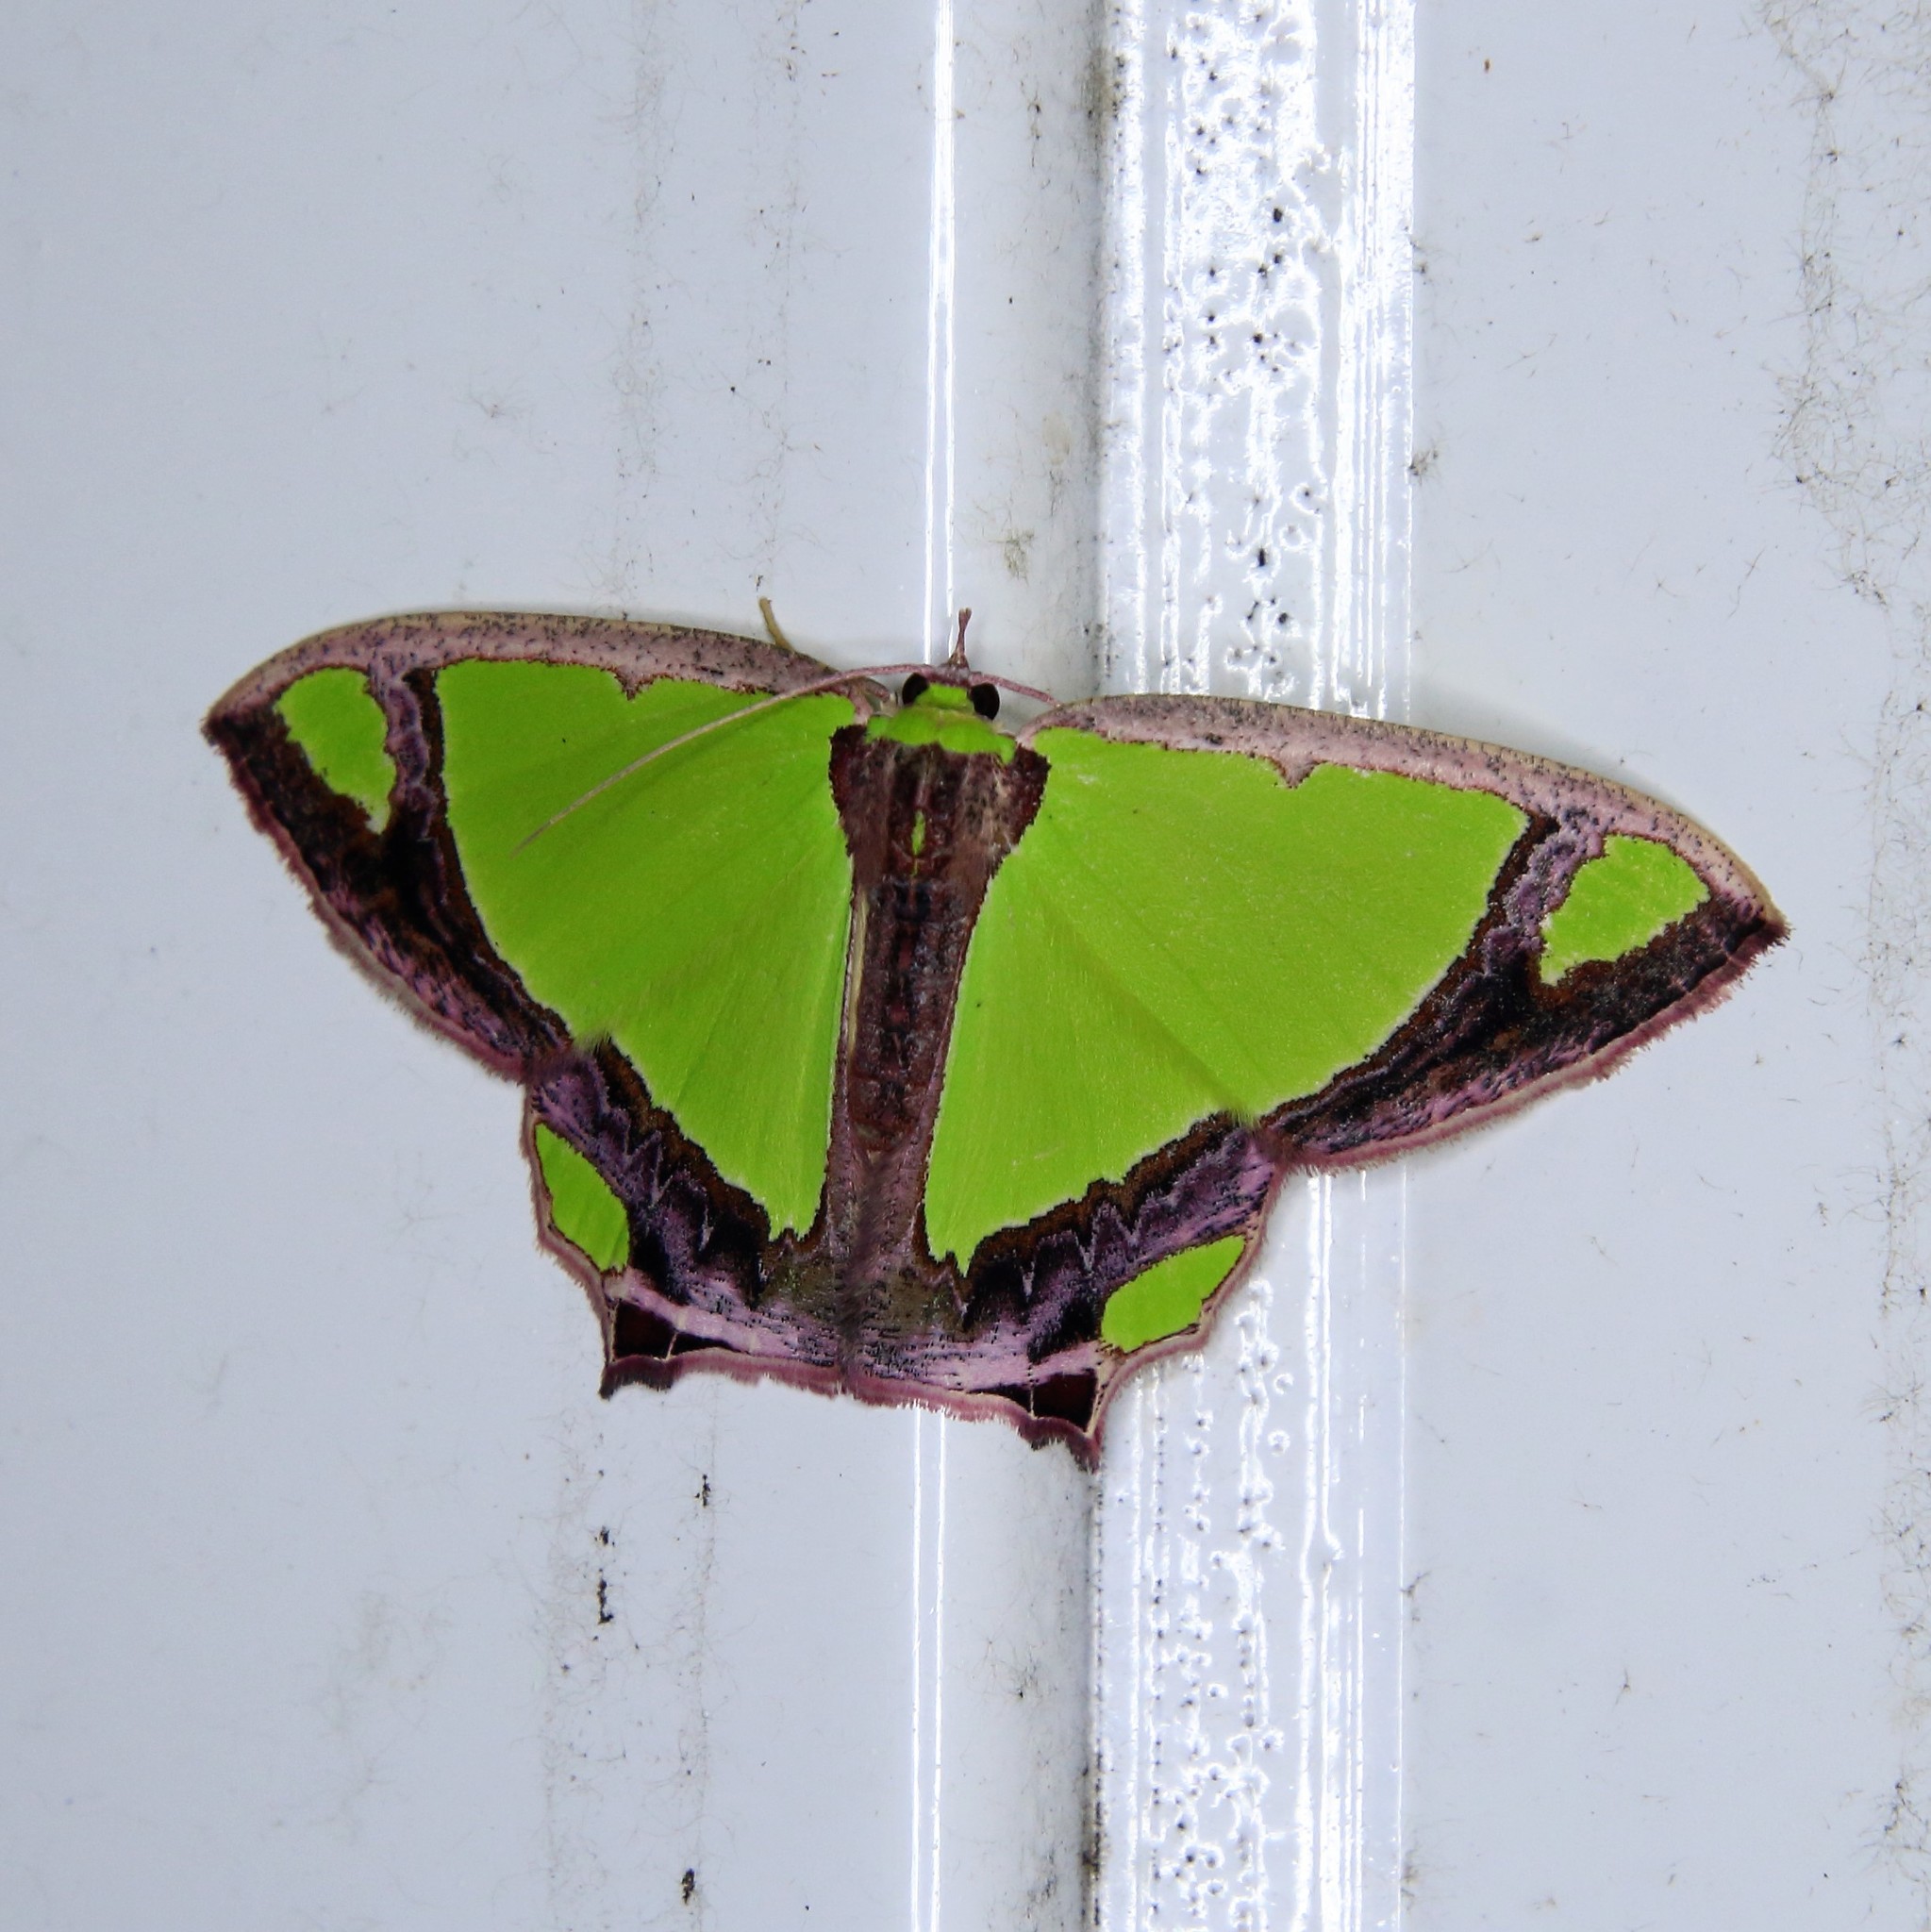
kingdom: Animalia
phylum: Arthropoda
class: Insecta
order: Lepidoptera
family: Geometridae
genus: Agathia
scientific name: Agathia laetata
